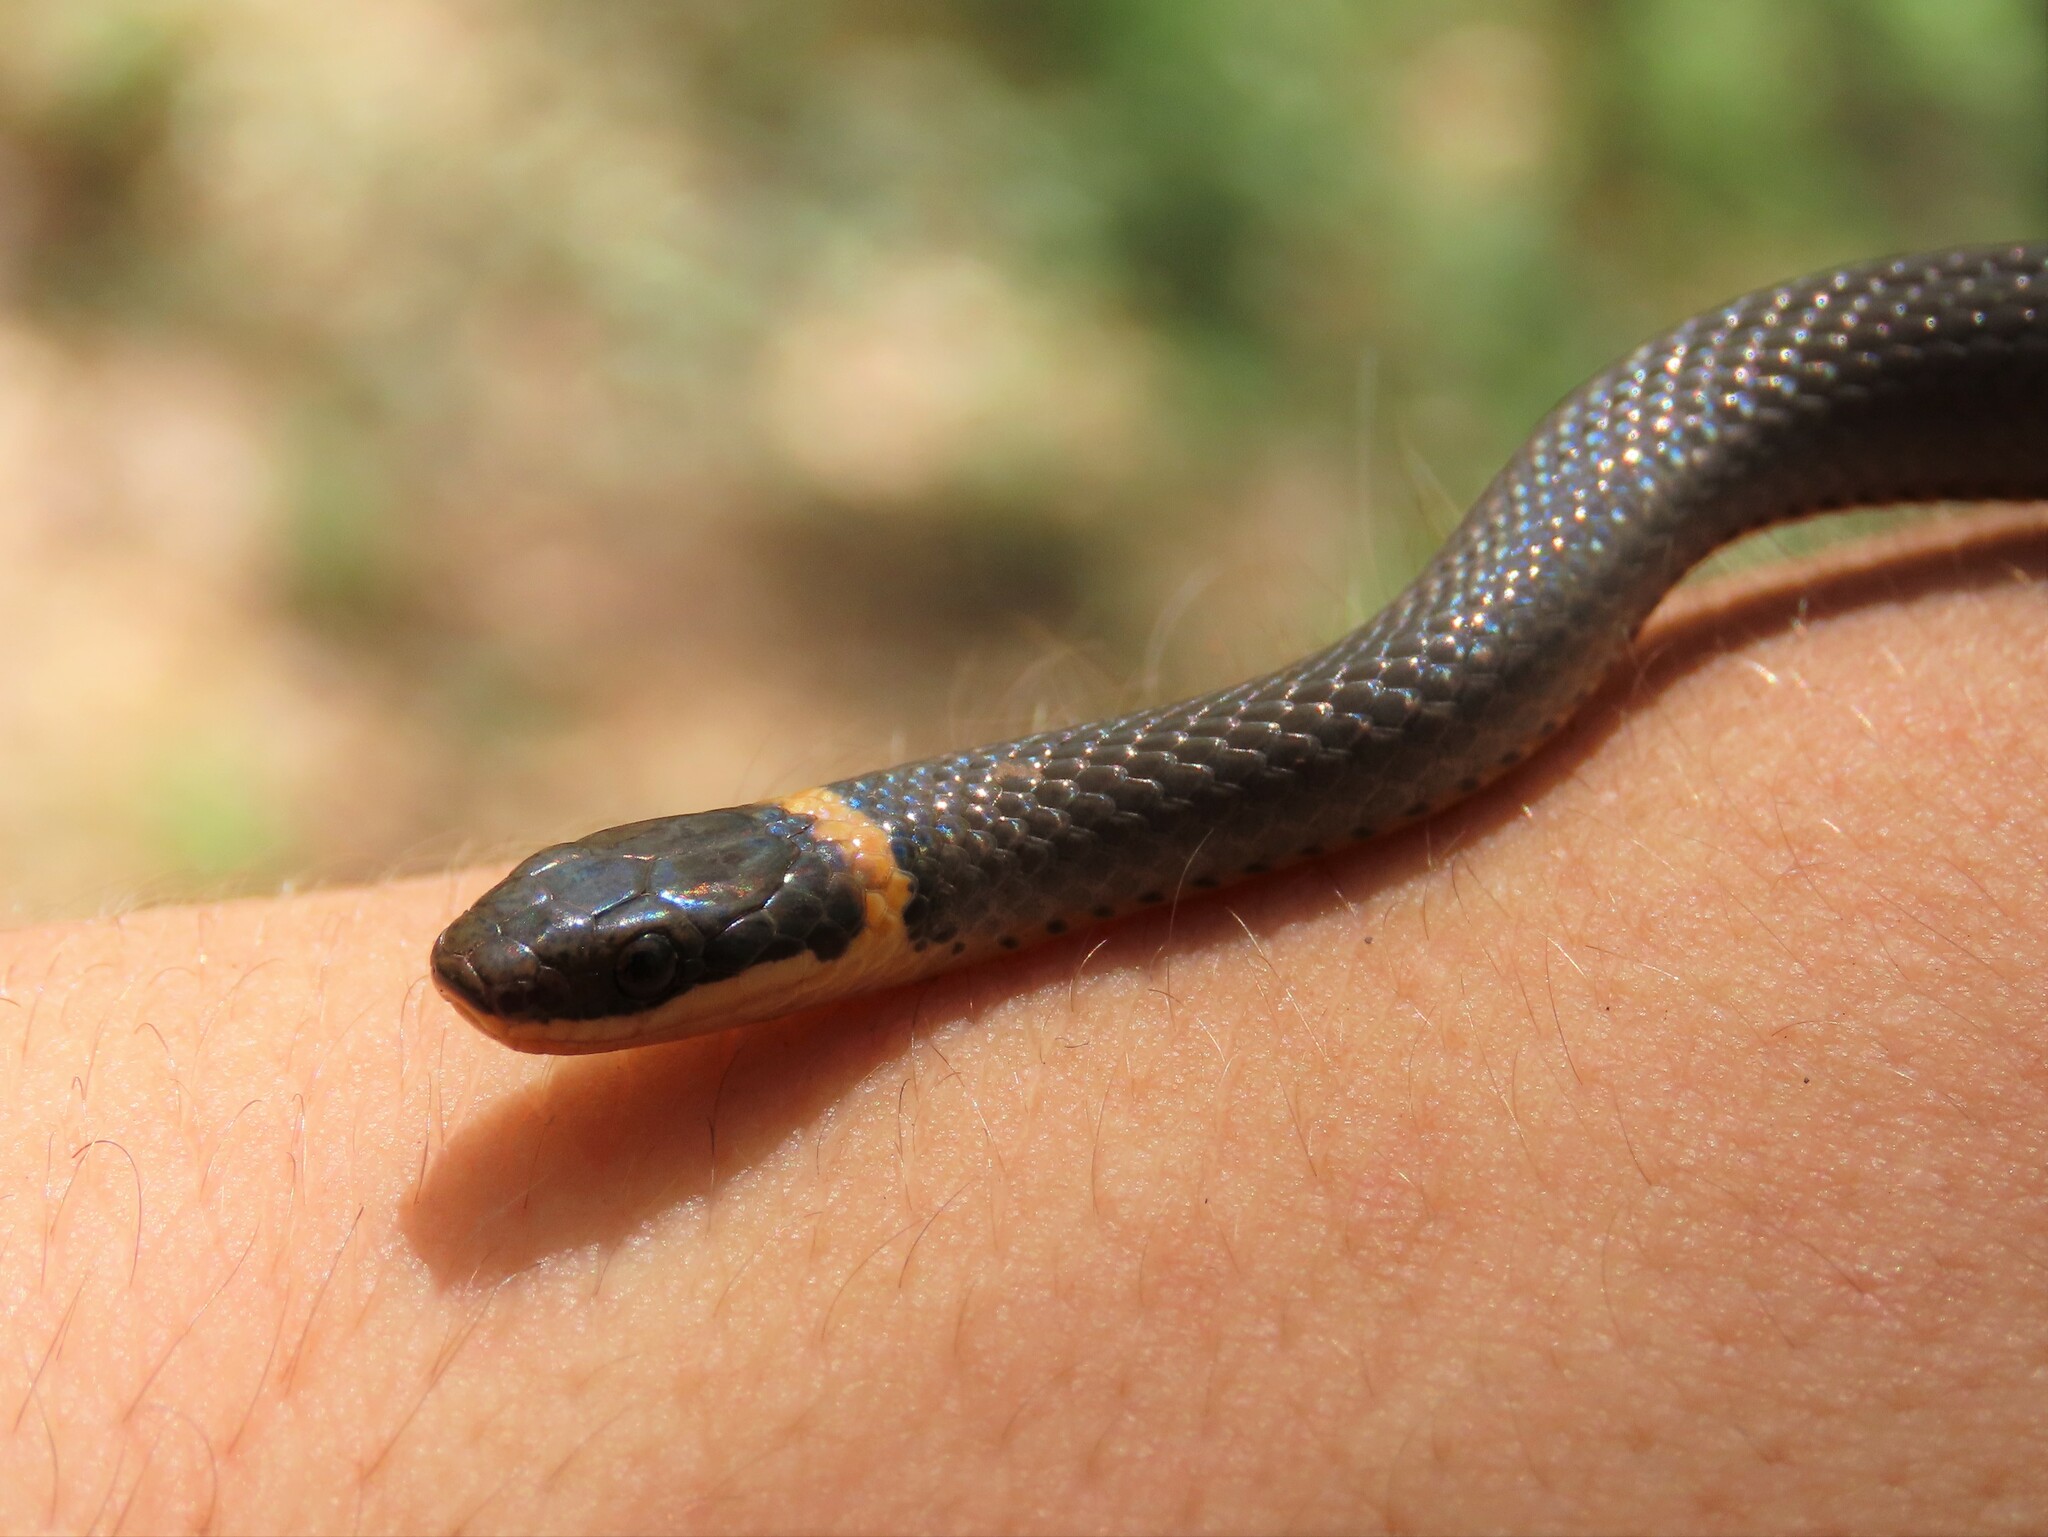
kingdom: Animalia
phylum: Chordata
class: Squamata
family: Colubridae
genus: Diadophis
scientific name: Diadophis punctatus
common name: Ringneck snake
